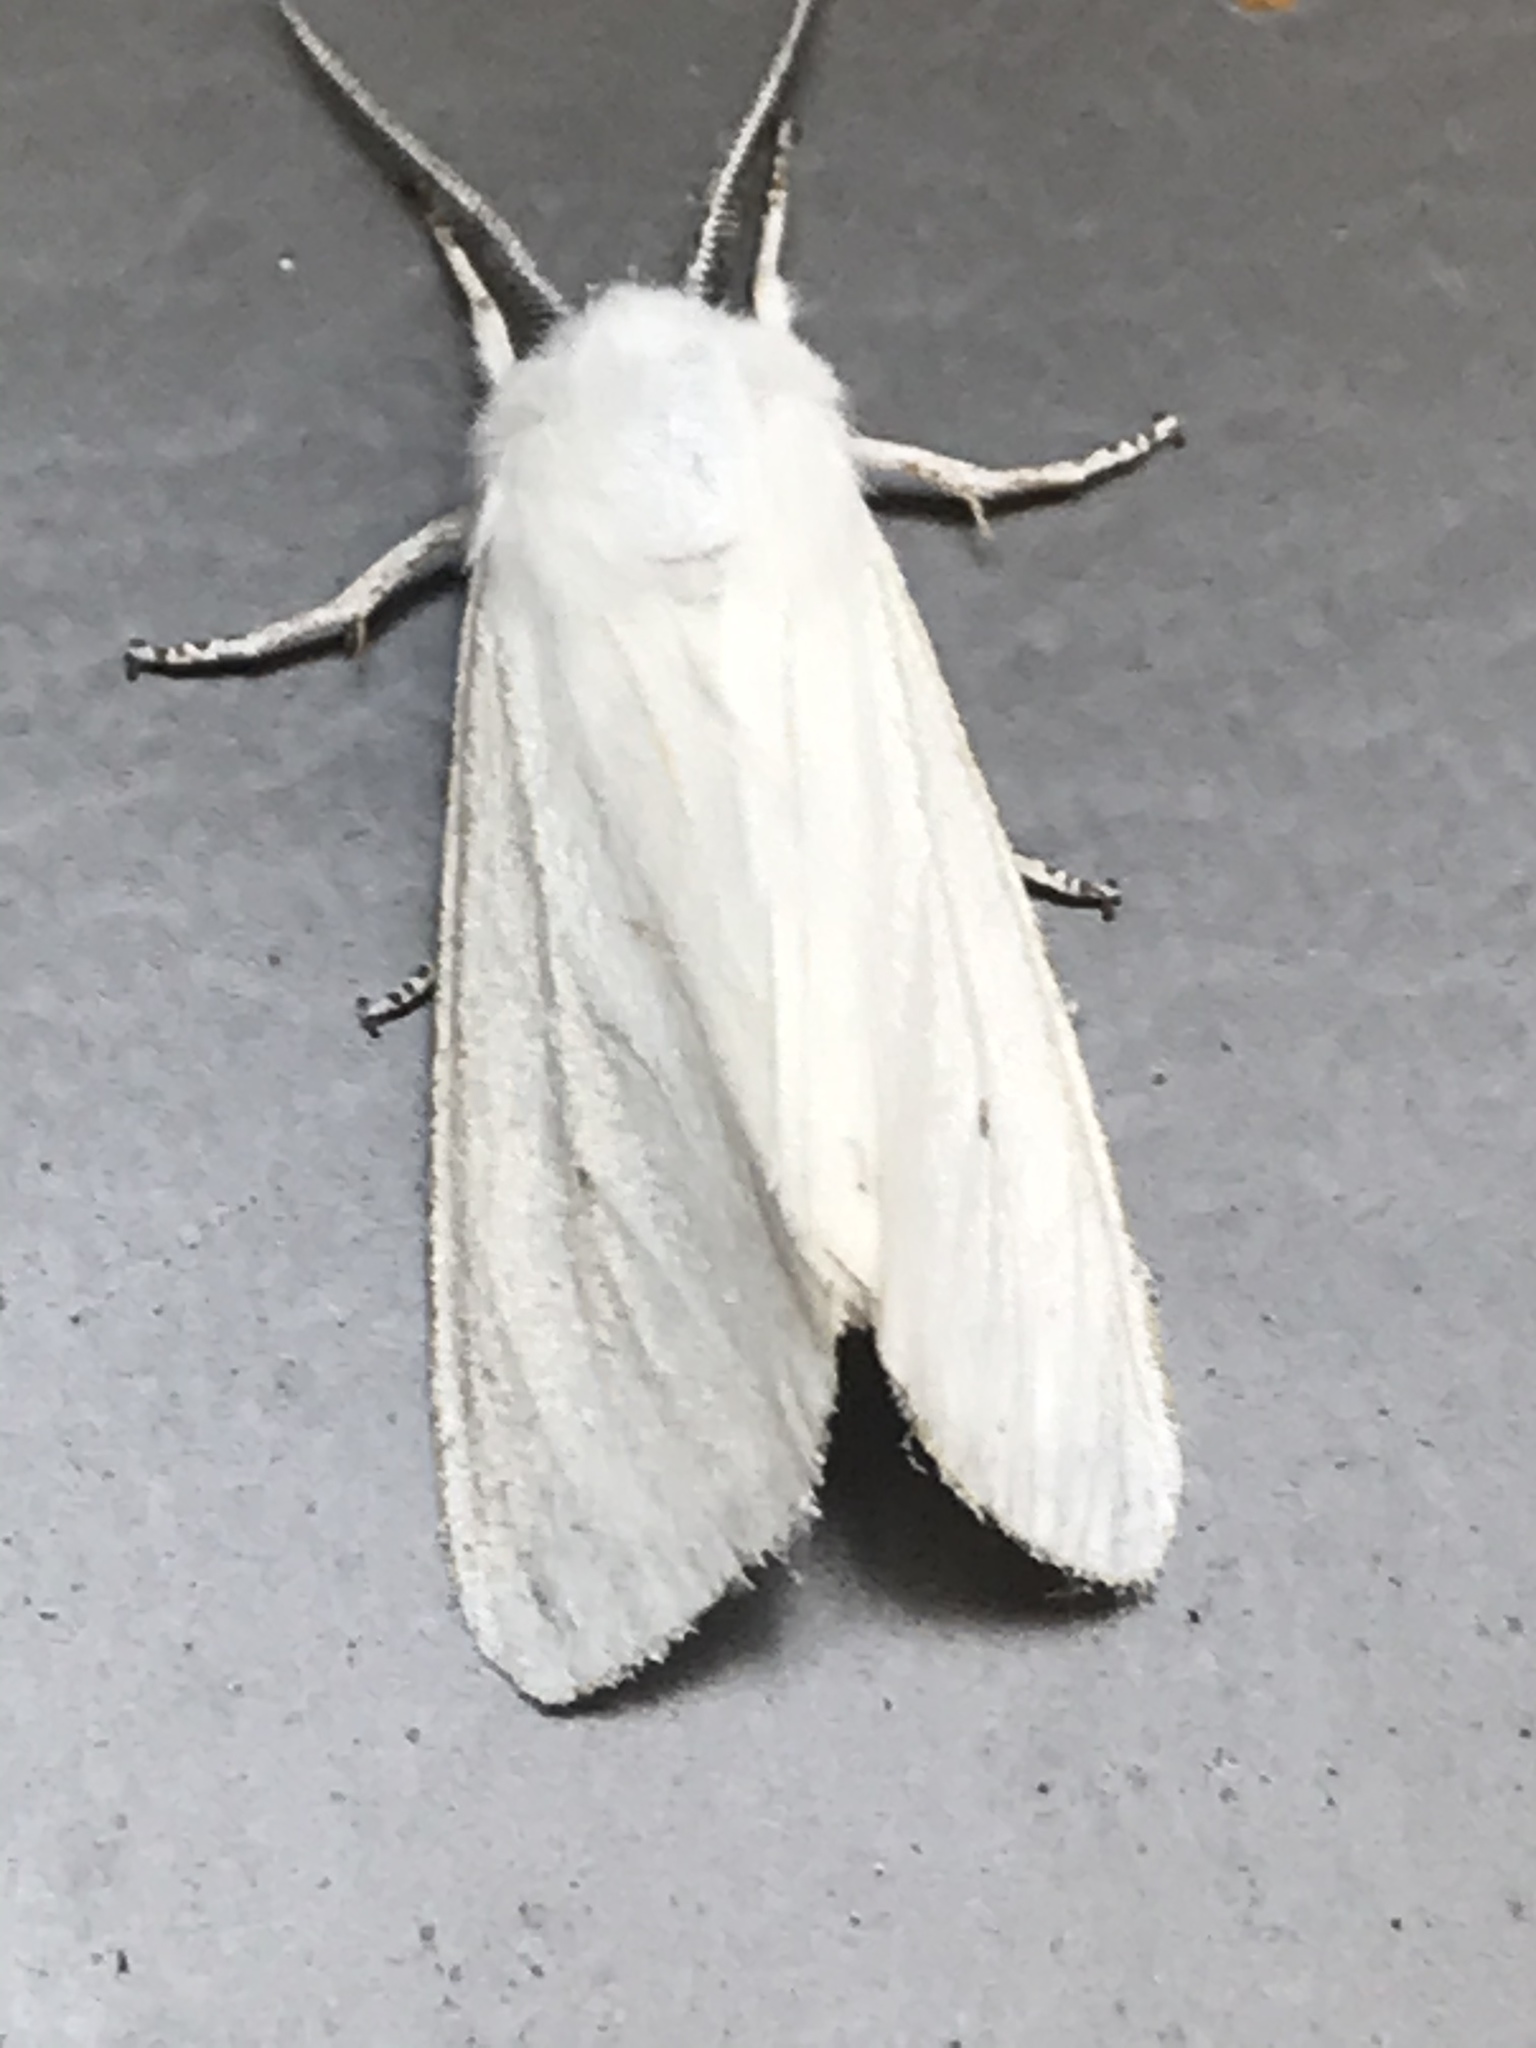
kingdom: Animalia
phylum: Arthropoda
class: Insecta
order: Lepidoptera
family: Erebidae
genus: Spilosoma
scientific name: Spilosoma virginica
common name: Virginia tiger moth
